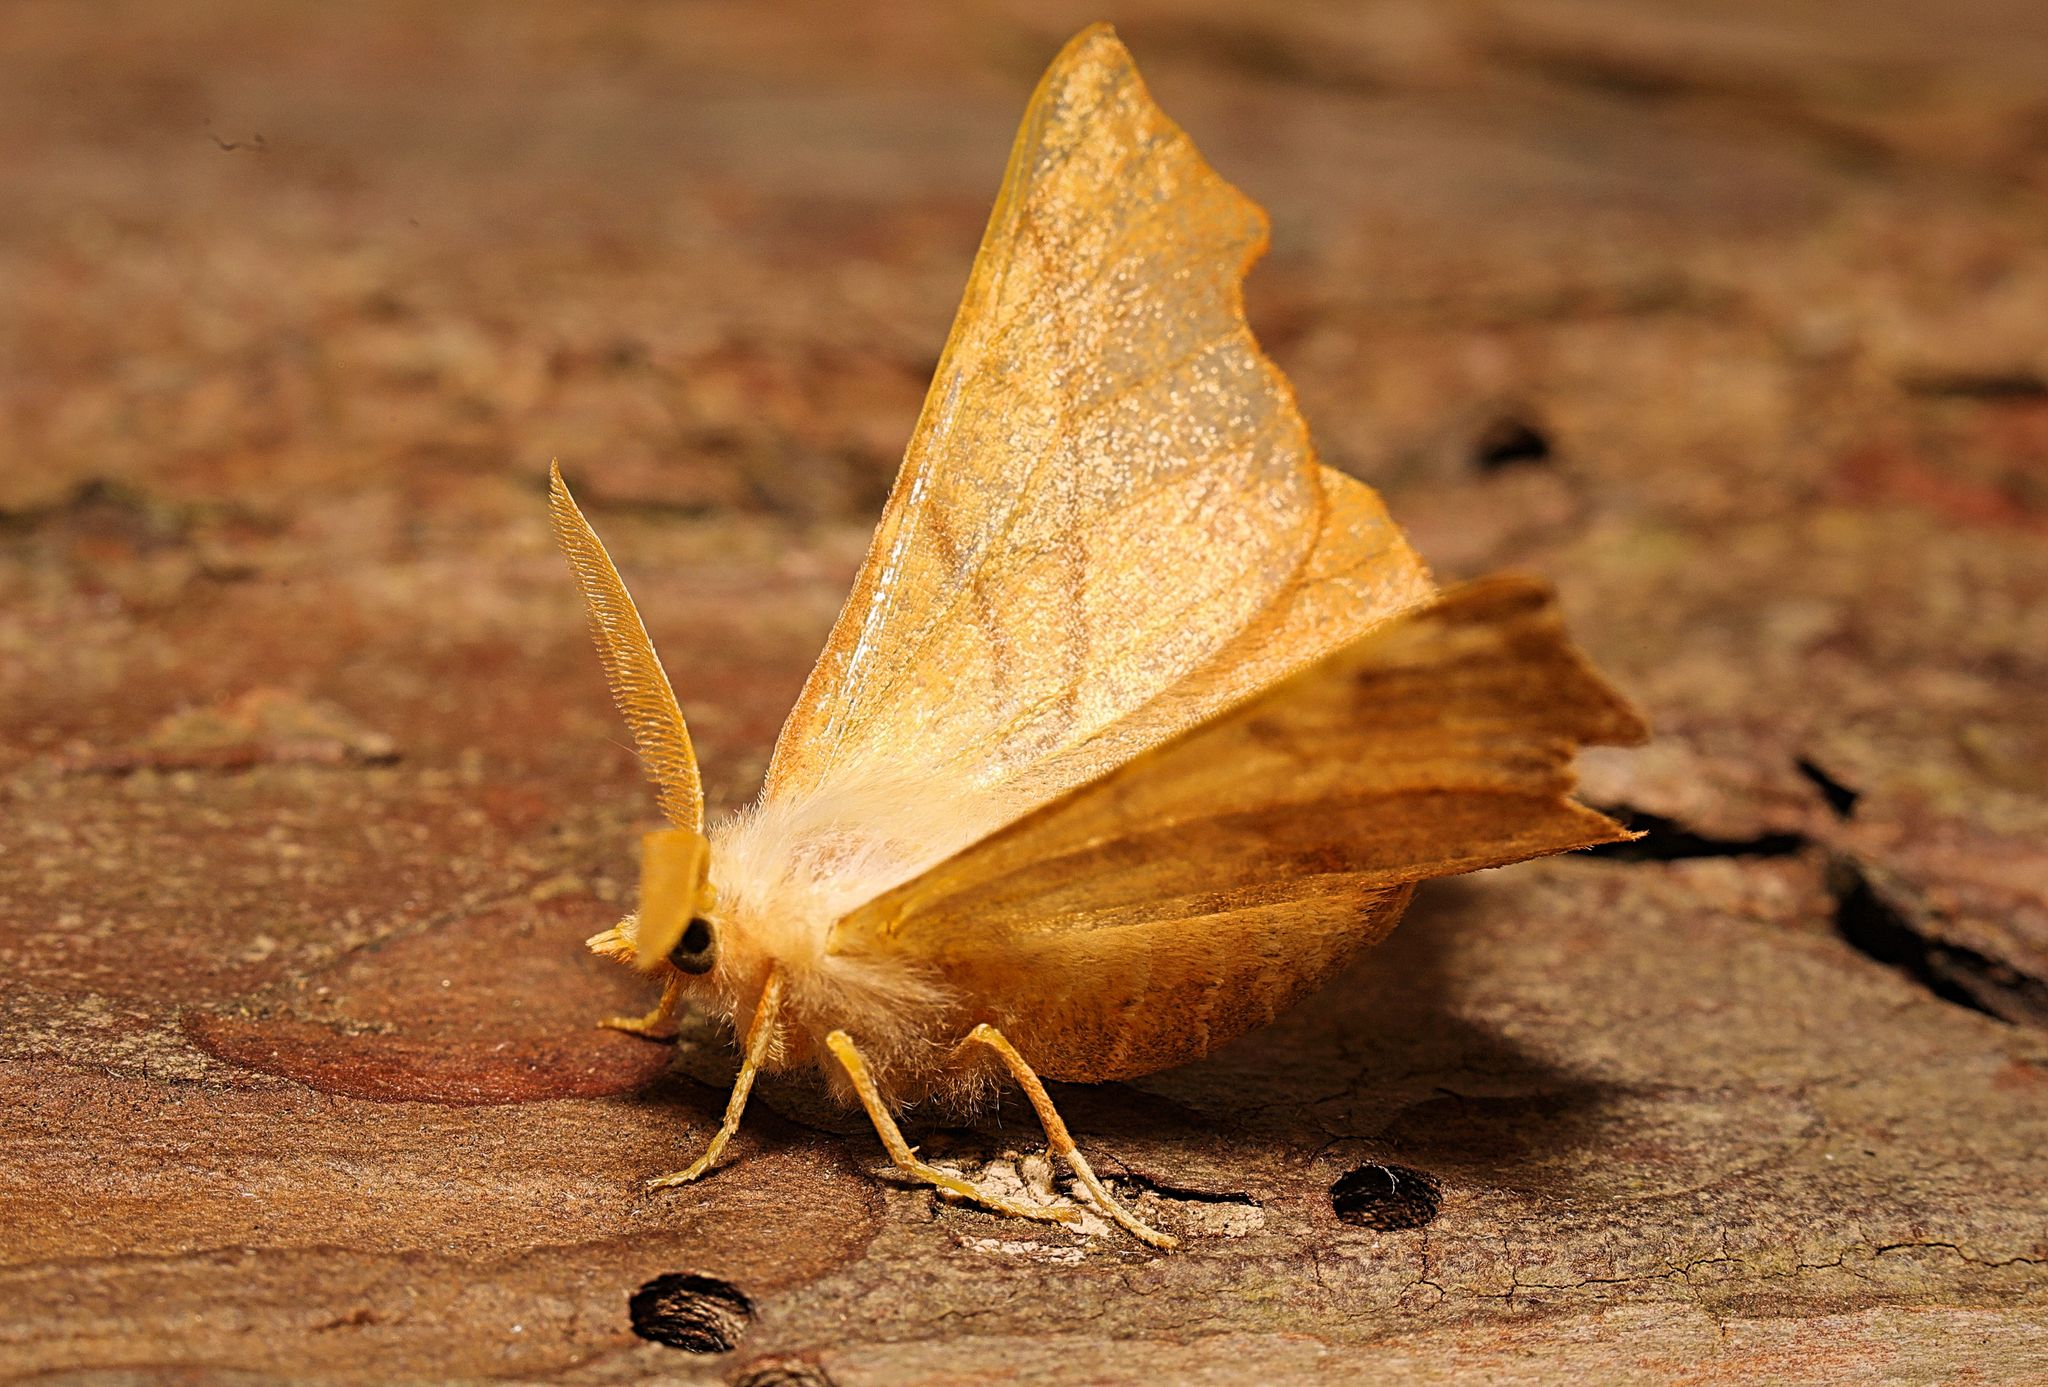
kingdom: Animalia
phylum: Arthropoda
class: Insecta
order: Lepidoptera
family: Geometridae
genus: Ennomos
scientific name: Ennomos fuscantaria
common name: Dusky thorn
